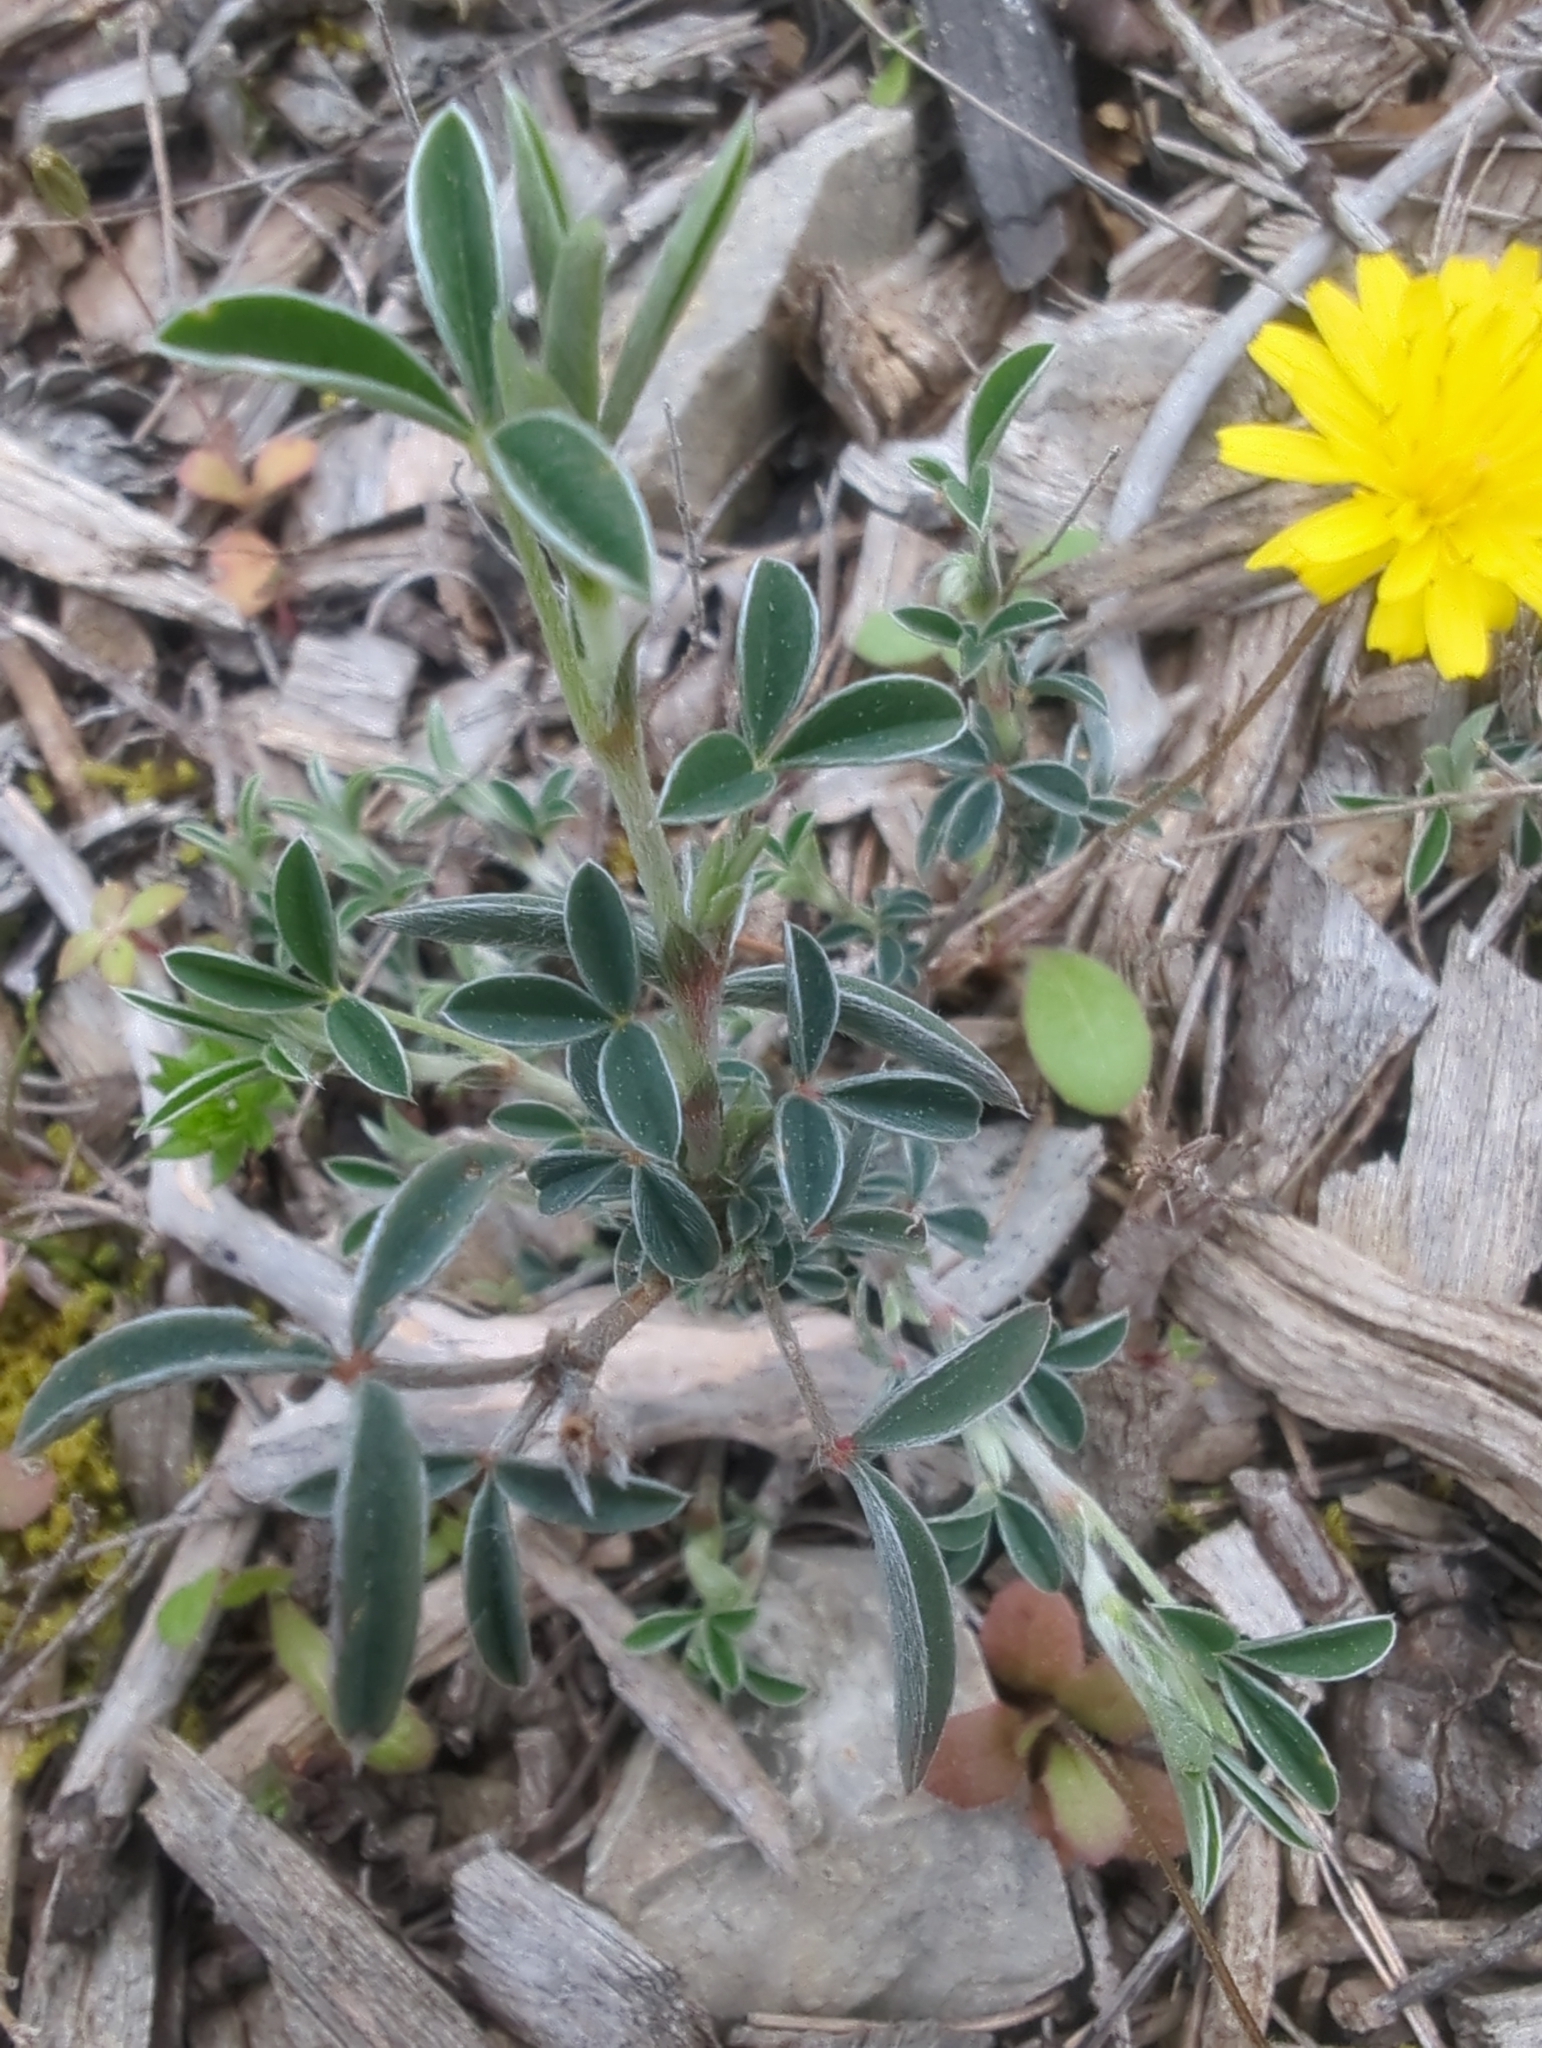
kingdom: Plantae
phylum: Tracheophyta
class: Magnoliopsida
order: Fabales
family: Fabaceae
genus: Argyrolobium
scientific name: Argyrolobium zanonii
